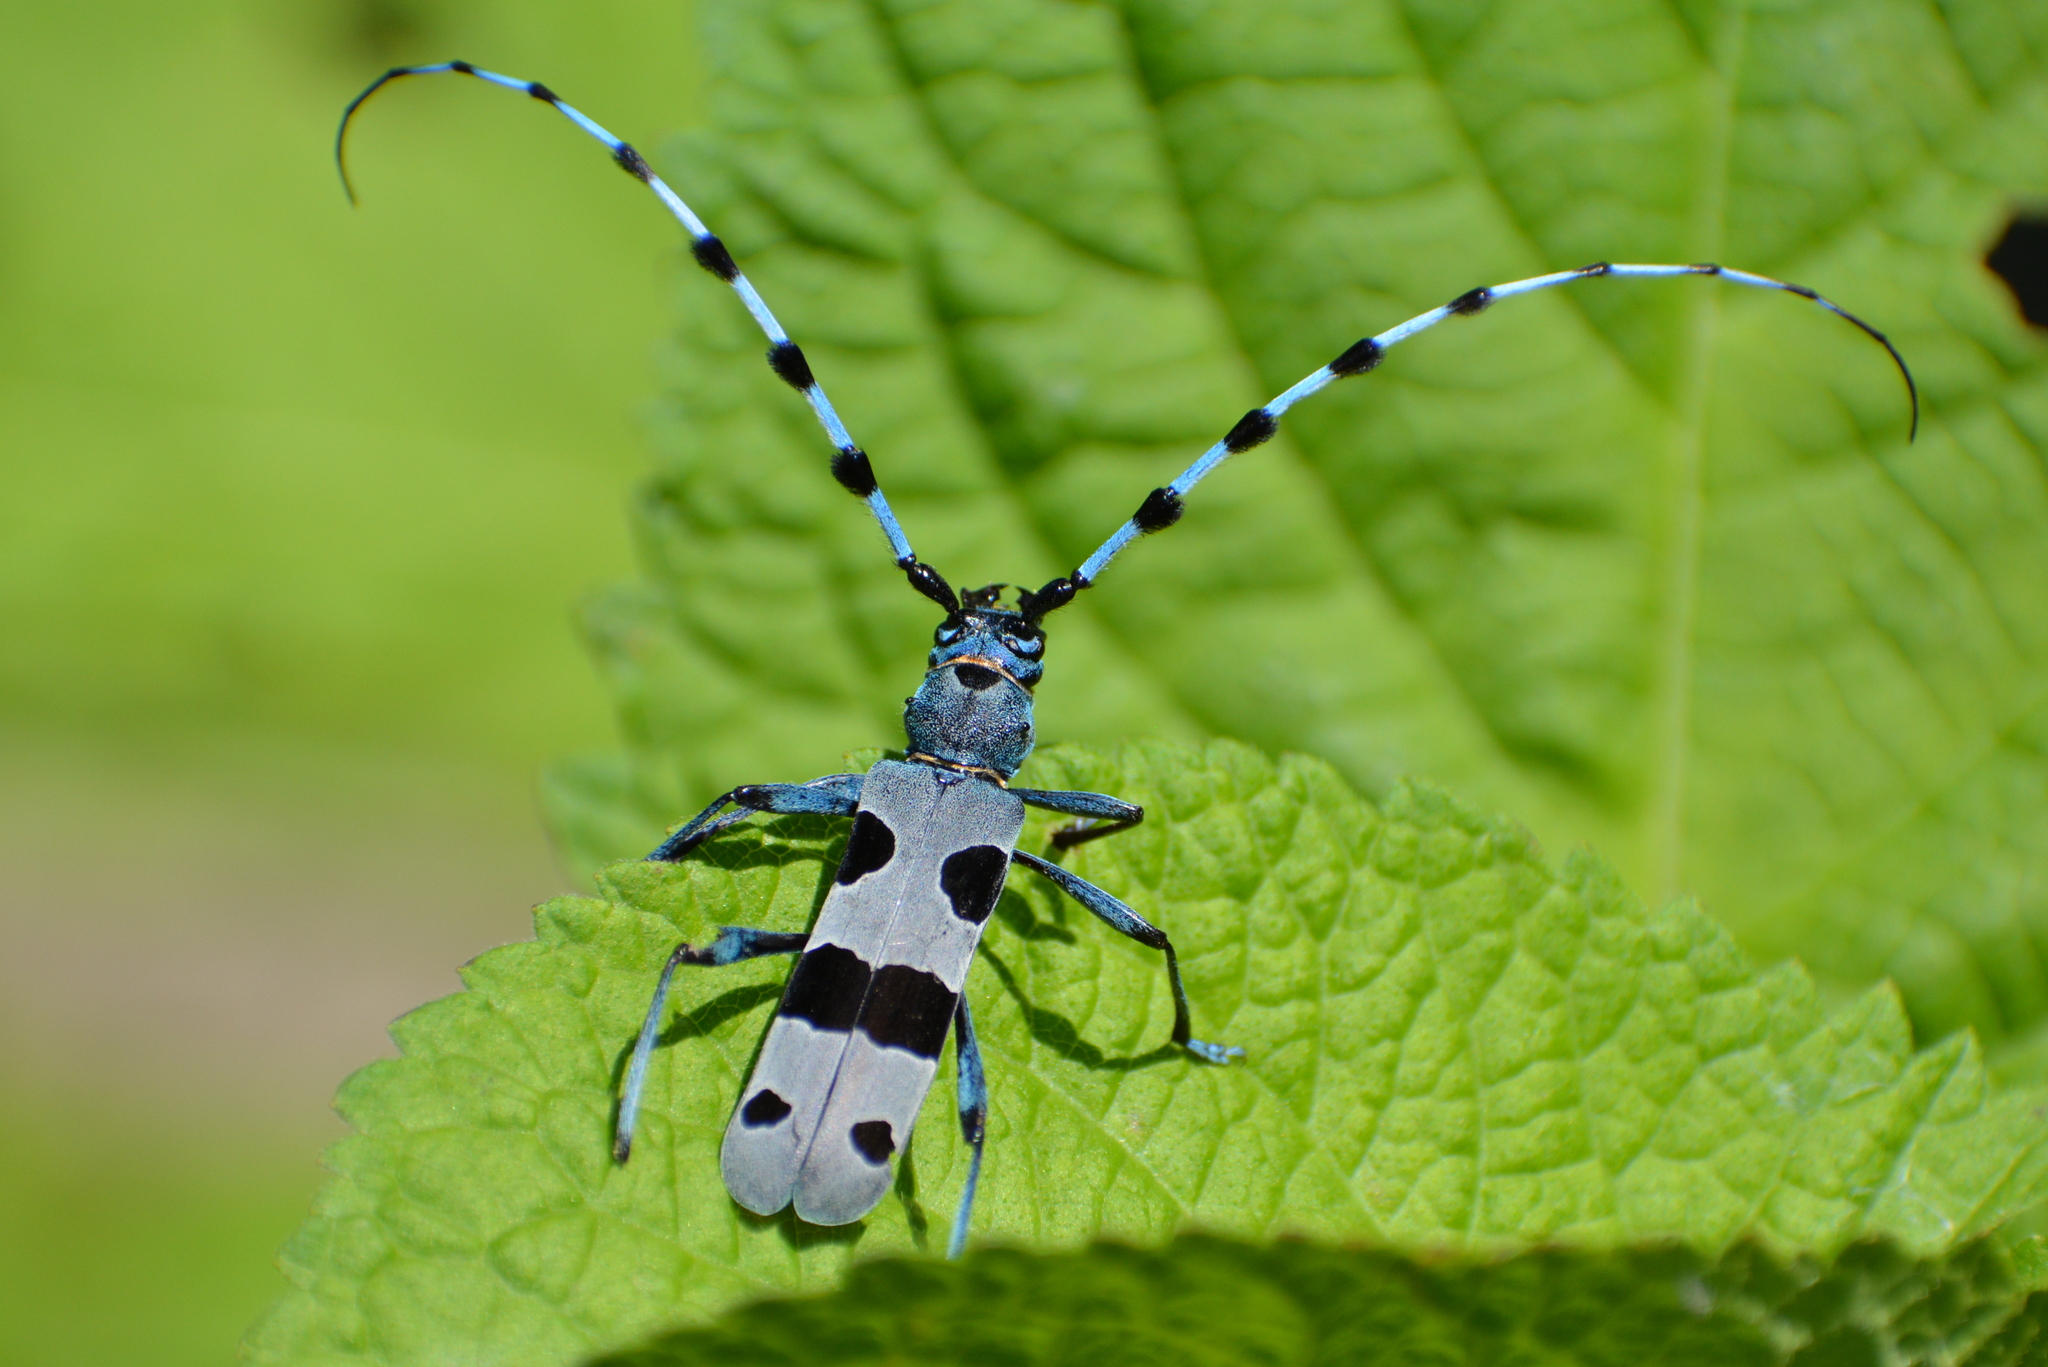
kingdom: Animalia
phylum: Arthropoda
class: Insecta
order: Coleoptera
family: Cerambycidae
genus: Rosalia
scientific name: Rosalia alpina
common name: Rosalia longicorn
